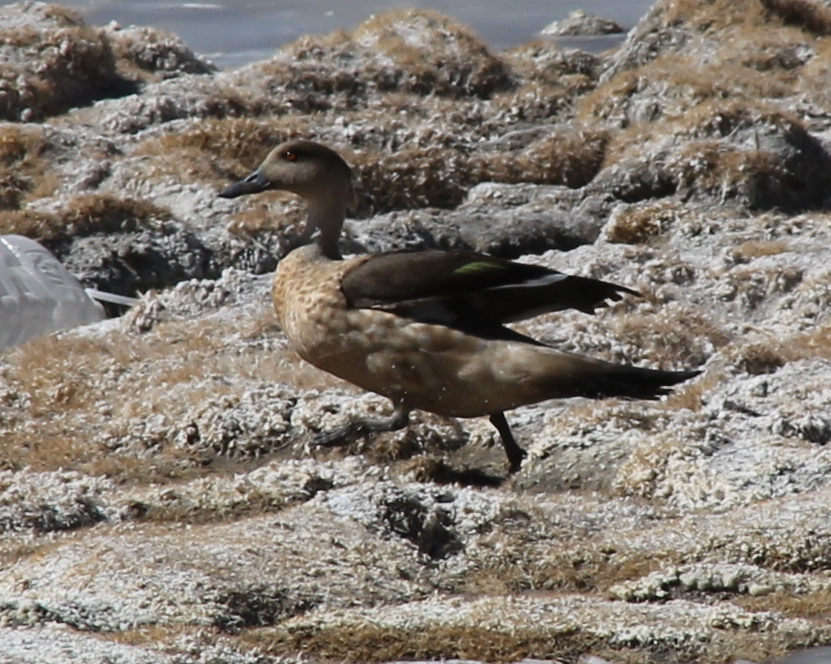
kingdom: Animalia
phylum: Chordata
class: Aves
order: Anseriformes
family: Anatidae
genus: Lophonetta
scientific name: Lophonetta specularioides
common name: Crested duck
